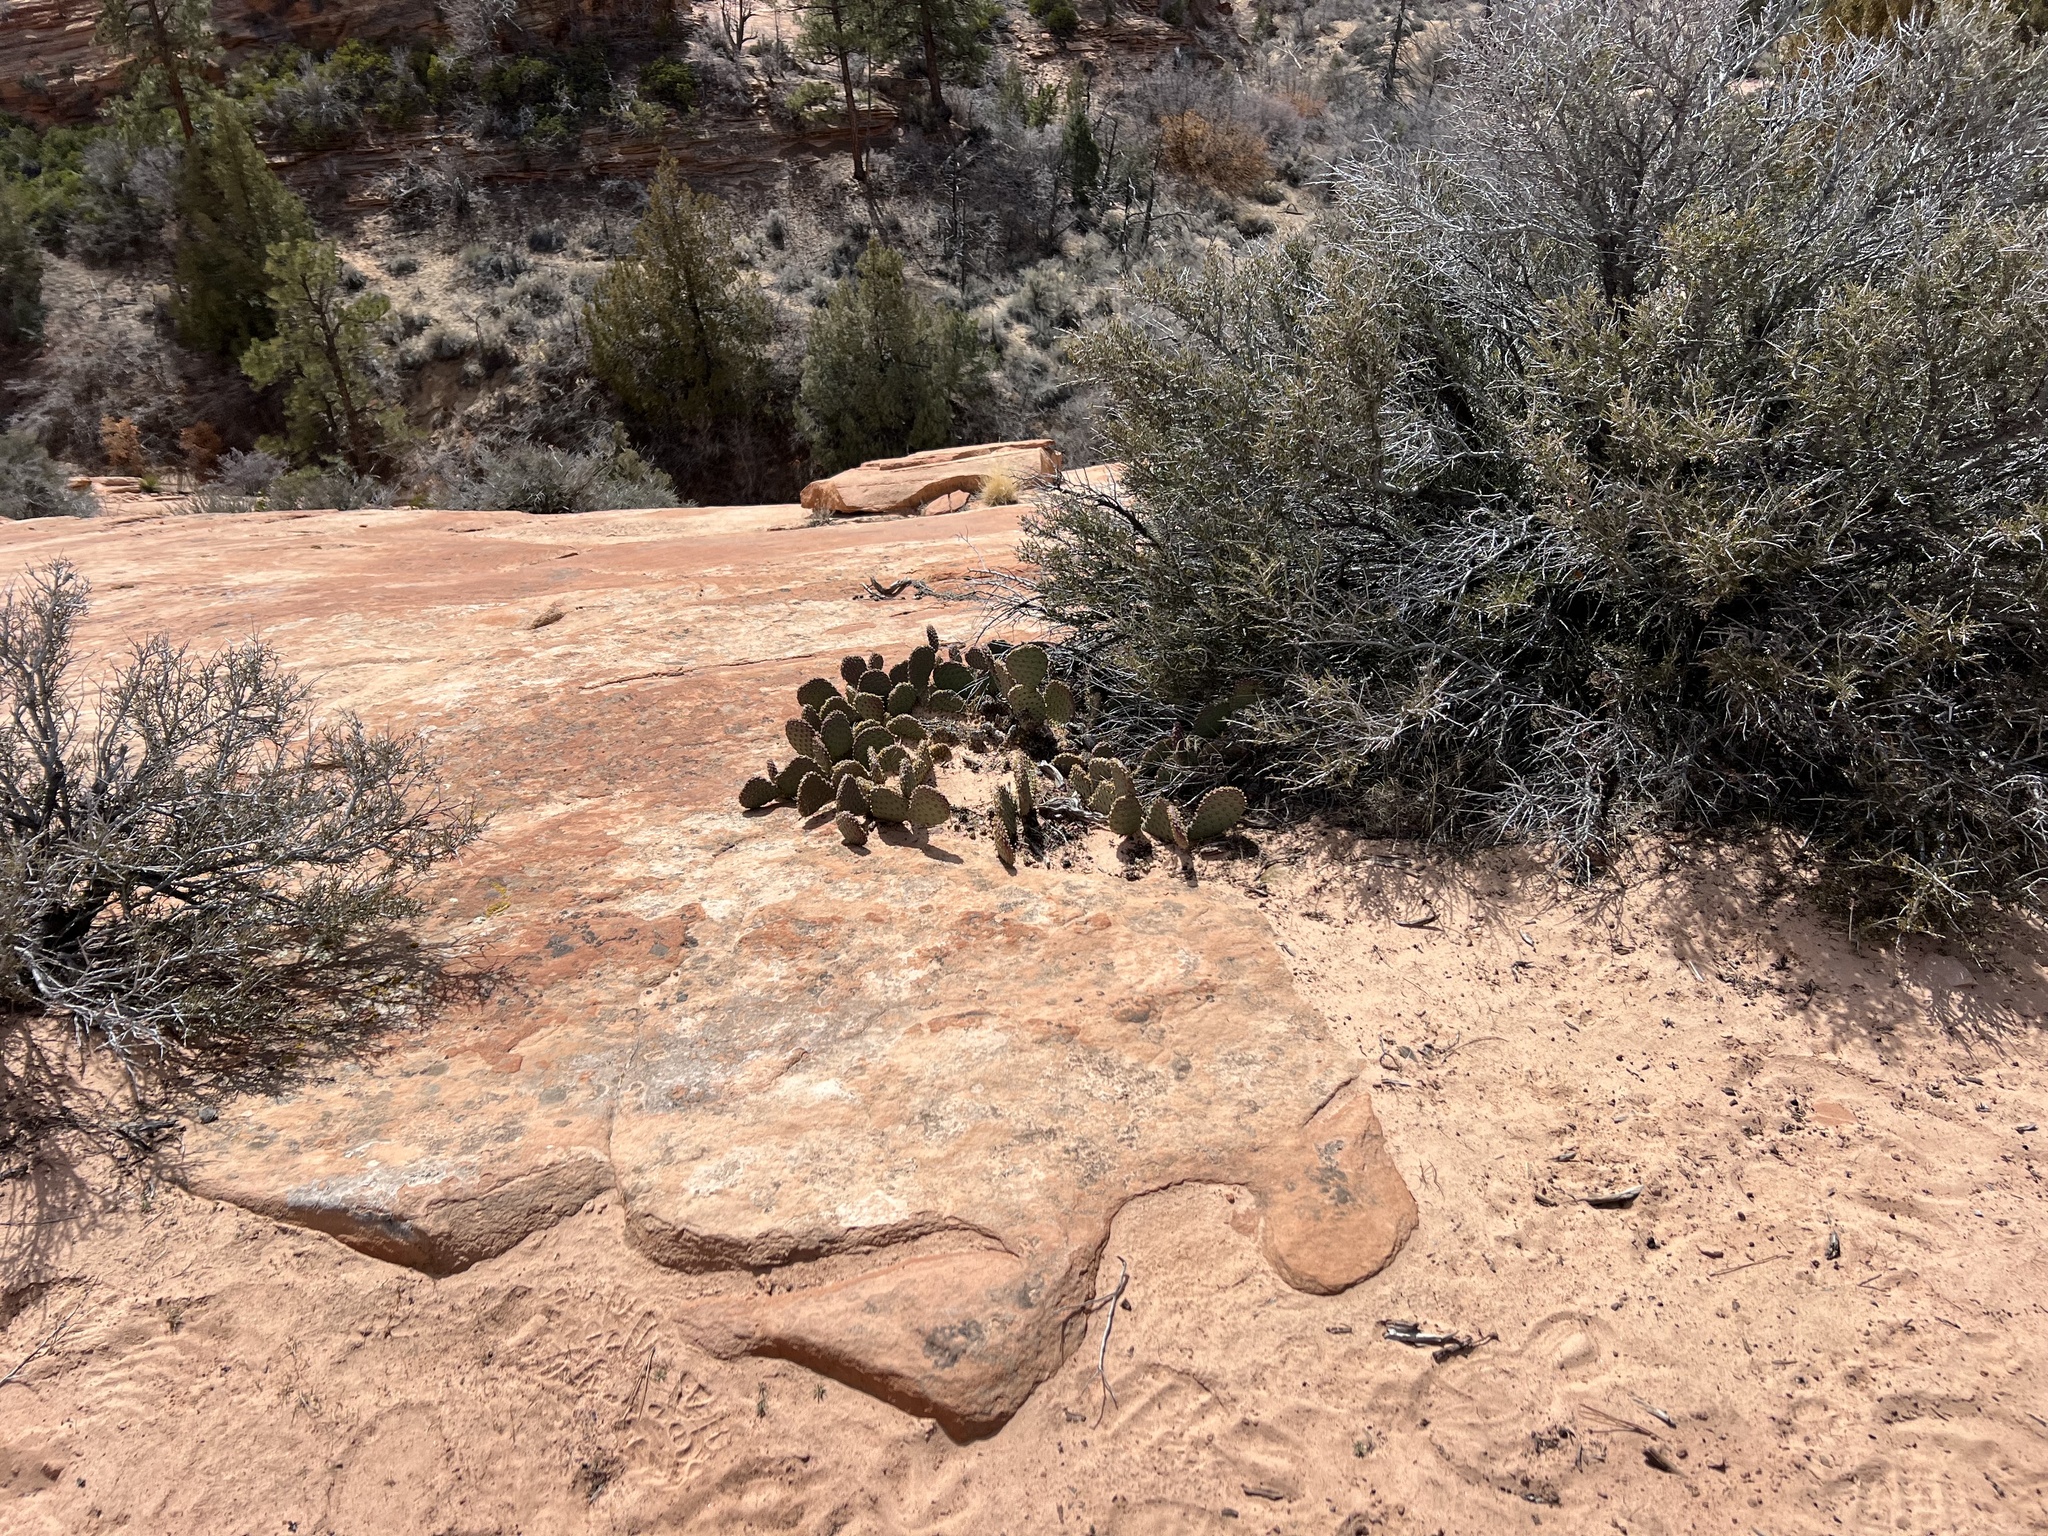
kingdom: Plantae
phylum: Tracheophyta
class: Magnoliopsida
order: Caryophyllales
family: Cactaceae
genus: Opuntia
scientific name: Opuntia aurea
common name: Golden prickly-pear
